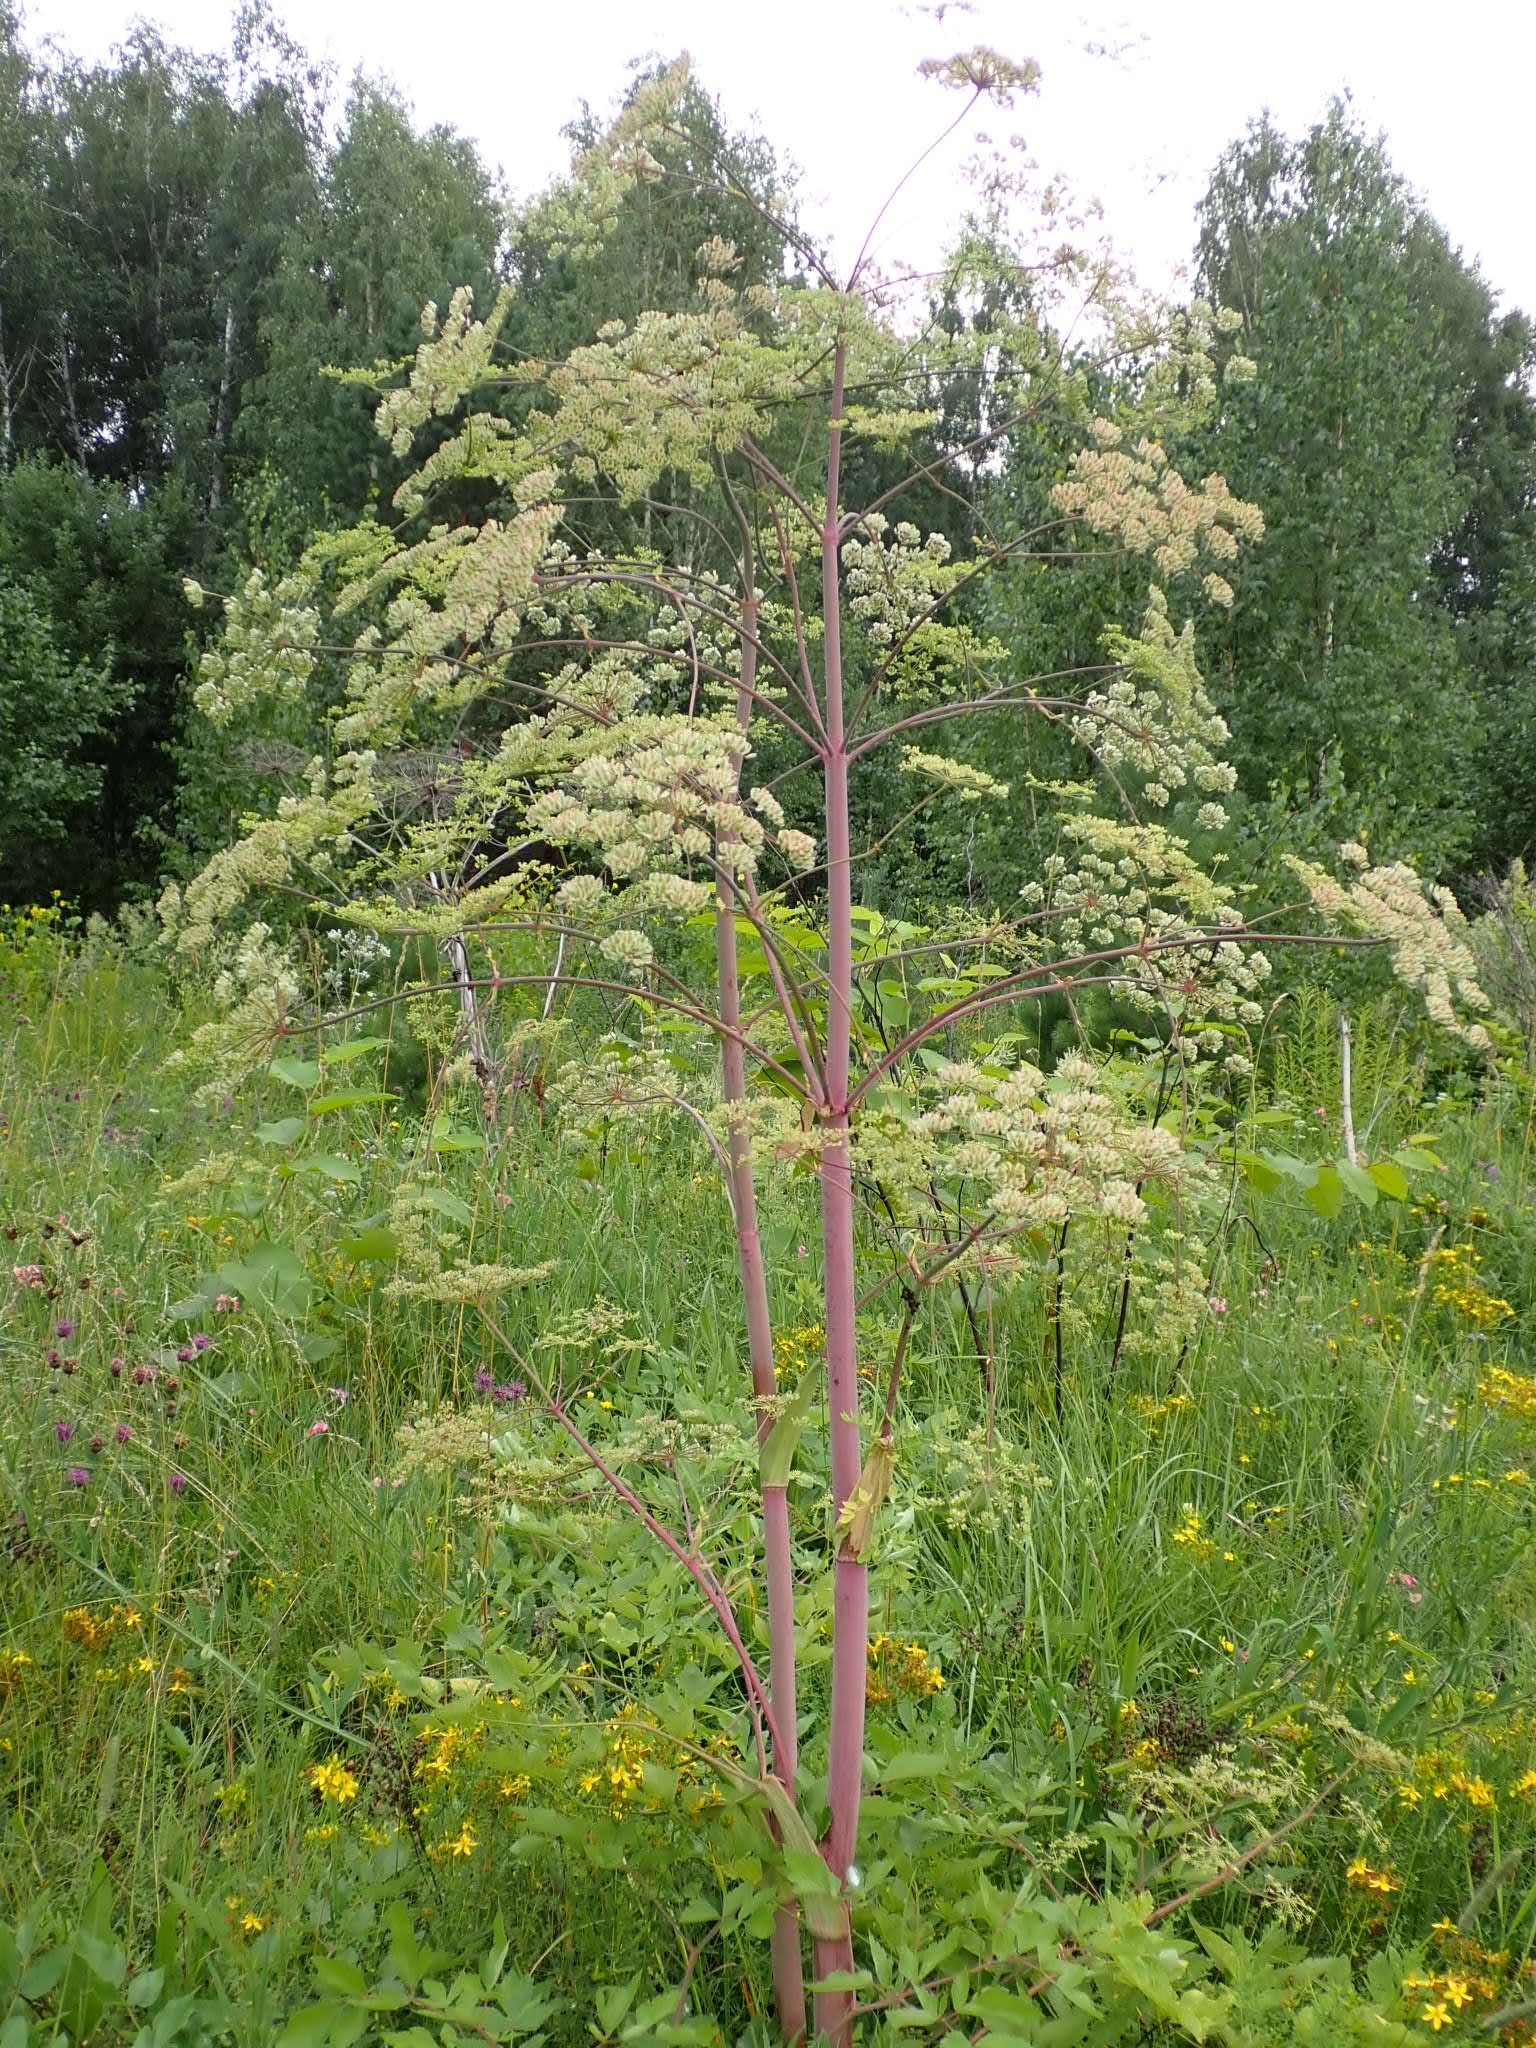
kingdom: Plantae
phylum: Tracheophyta
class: Magnoliopsida
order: Apiales
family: Apiaceae
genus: Xanthogalum
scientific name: Xanthogalum purpurascens
